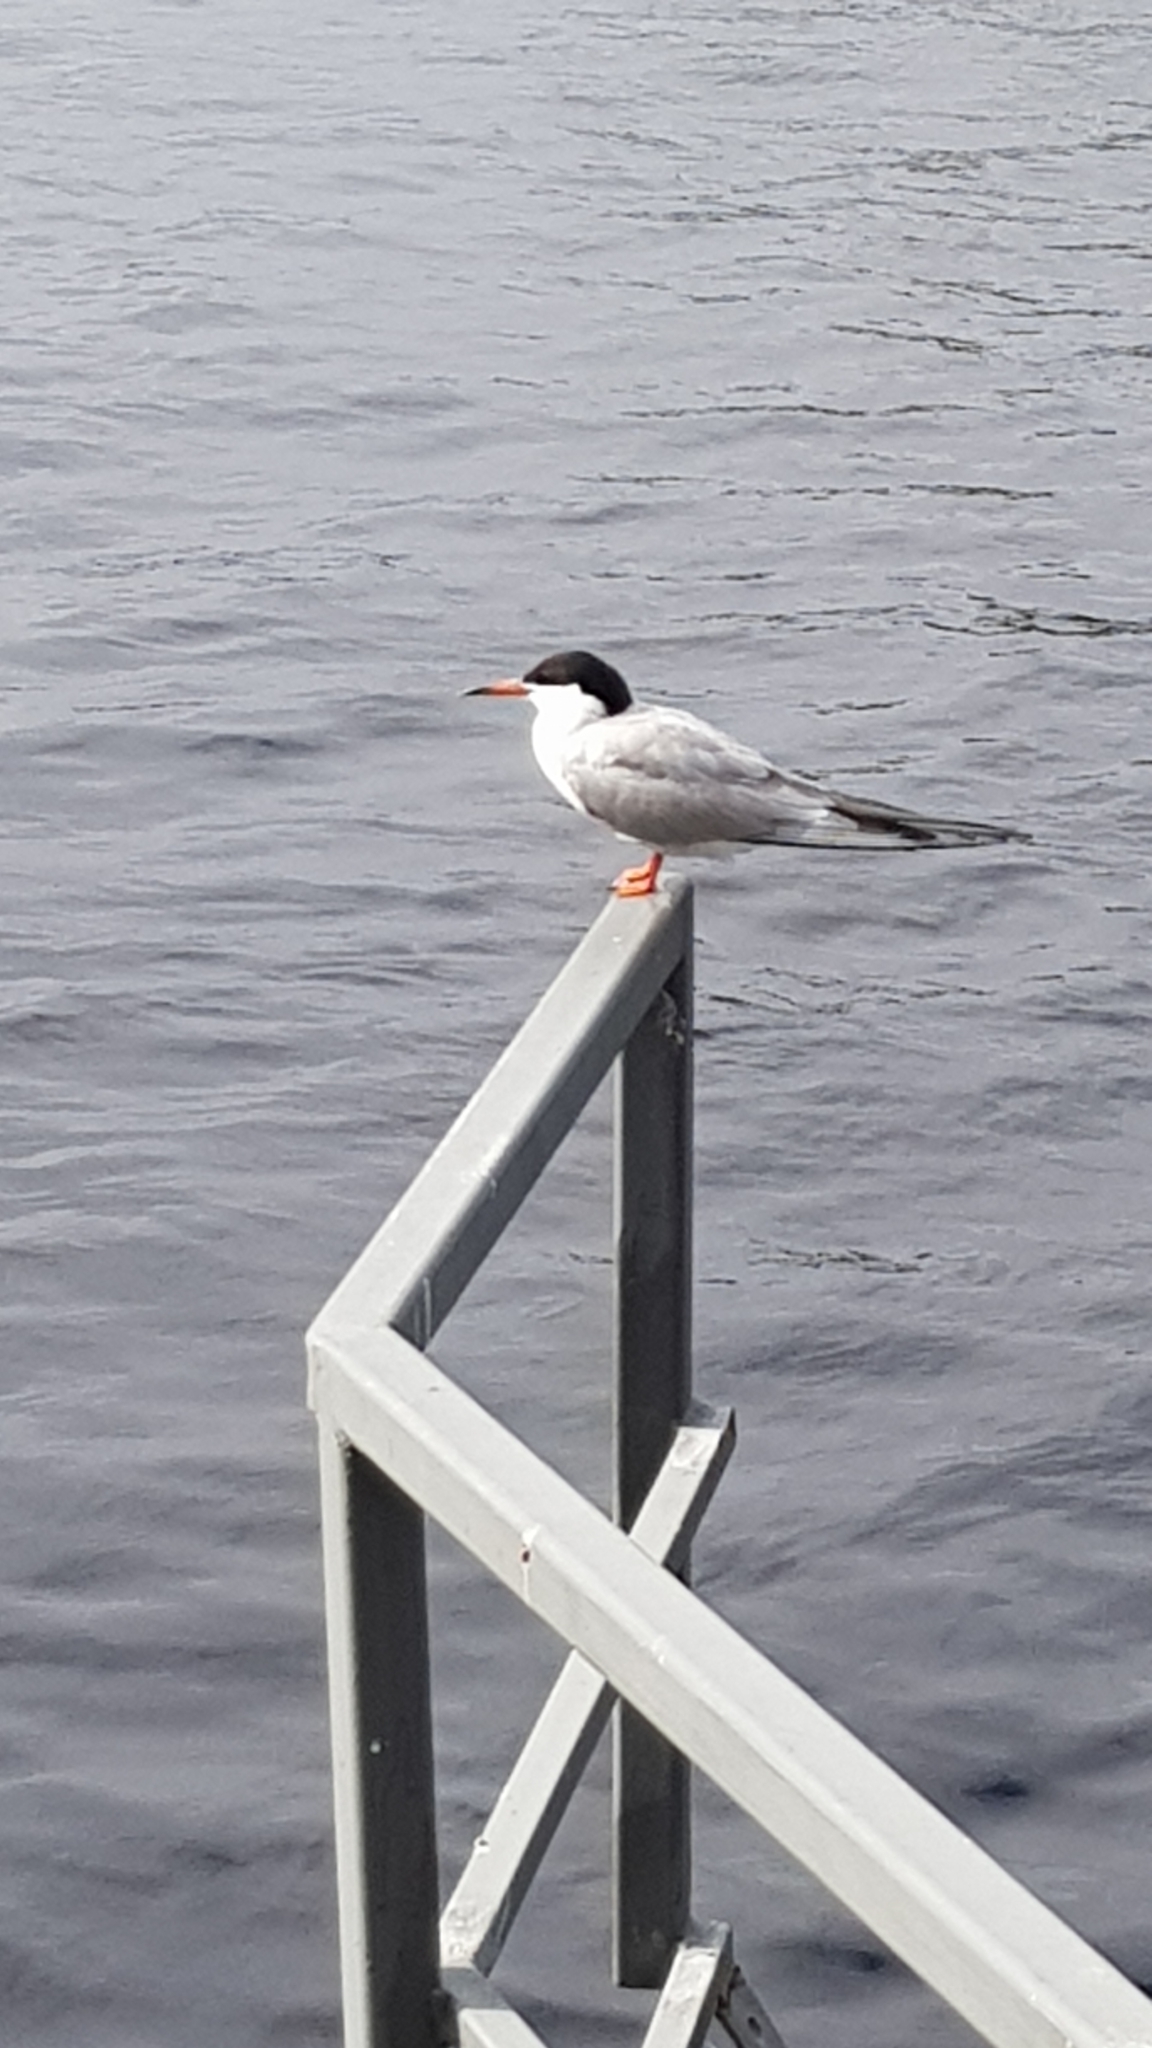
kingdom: Animalia
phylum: Chordata
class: Aves
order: Charadriiformes
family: Laridae
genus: Sterna
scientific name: Sterna hirundo
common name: Common tern
